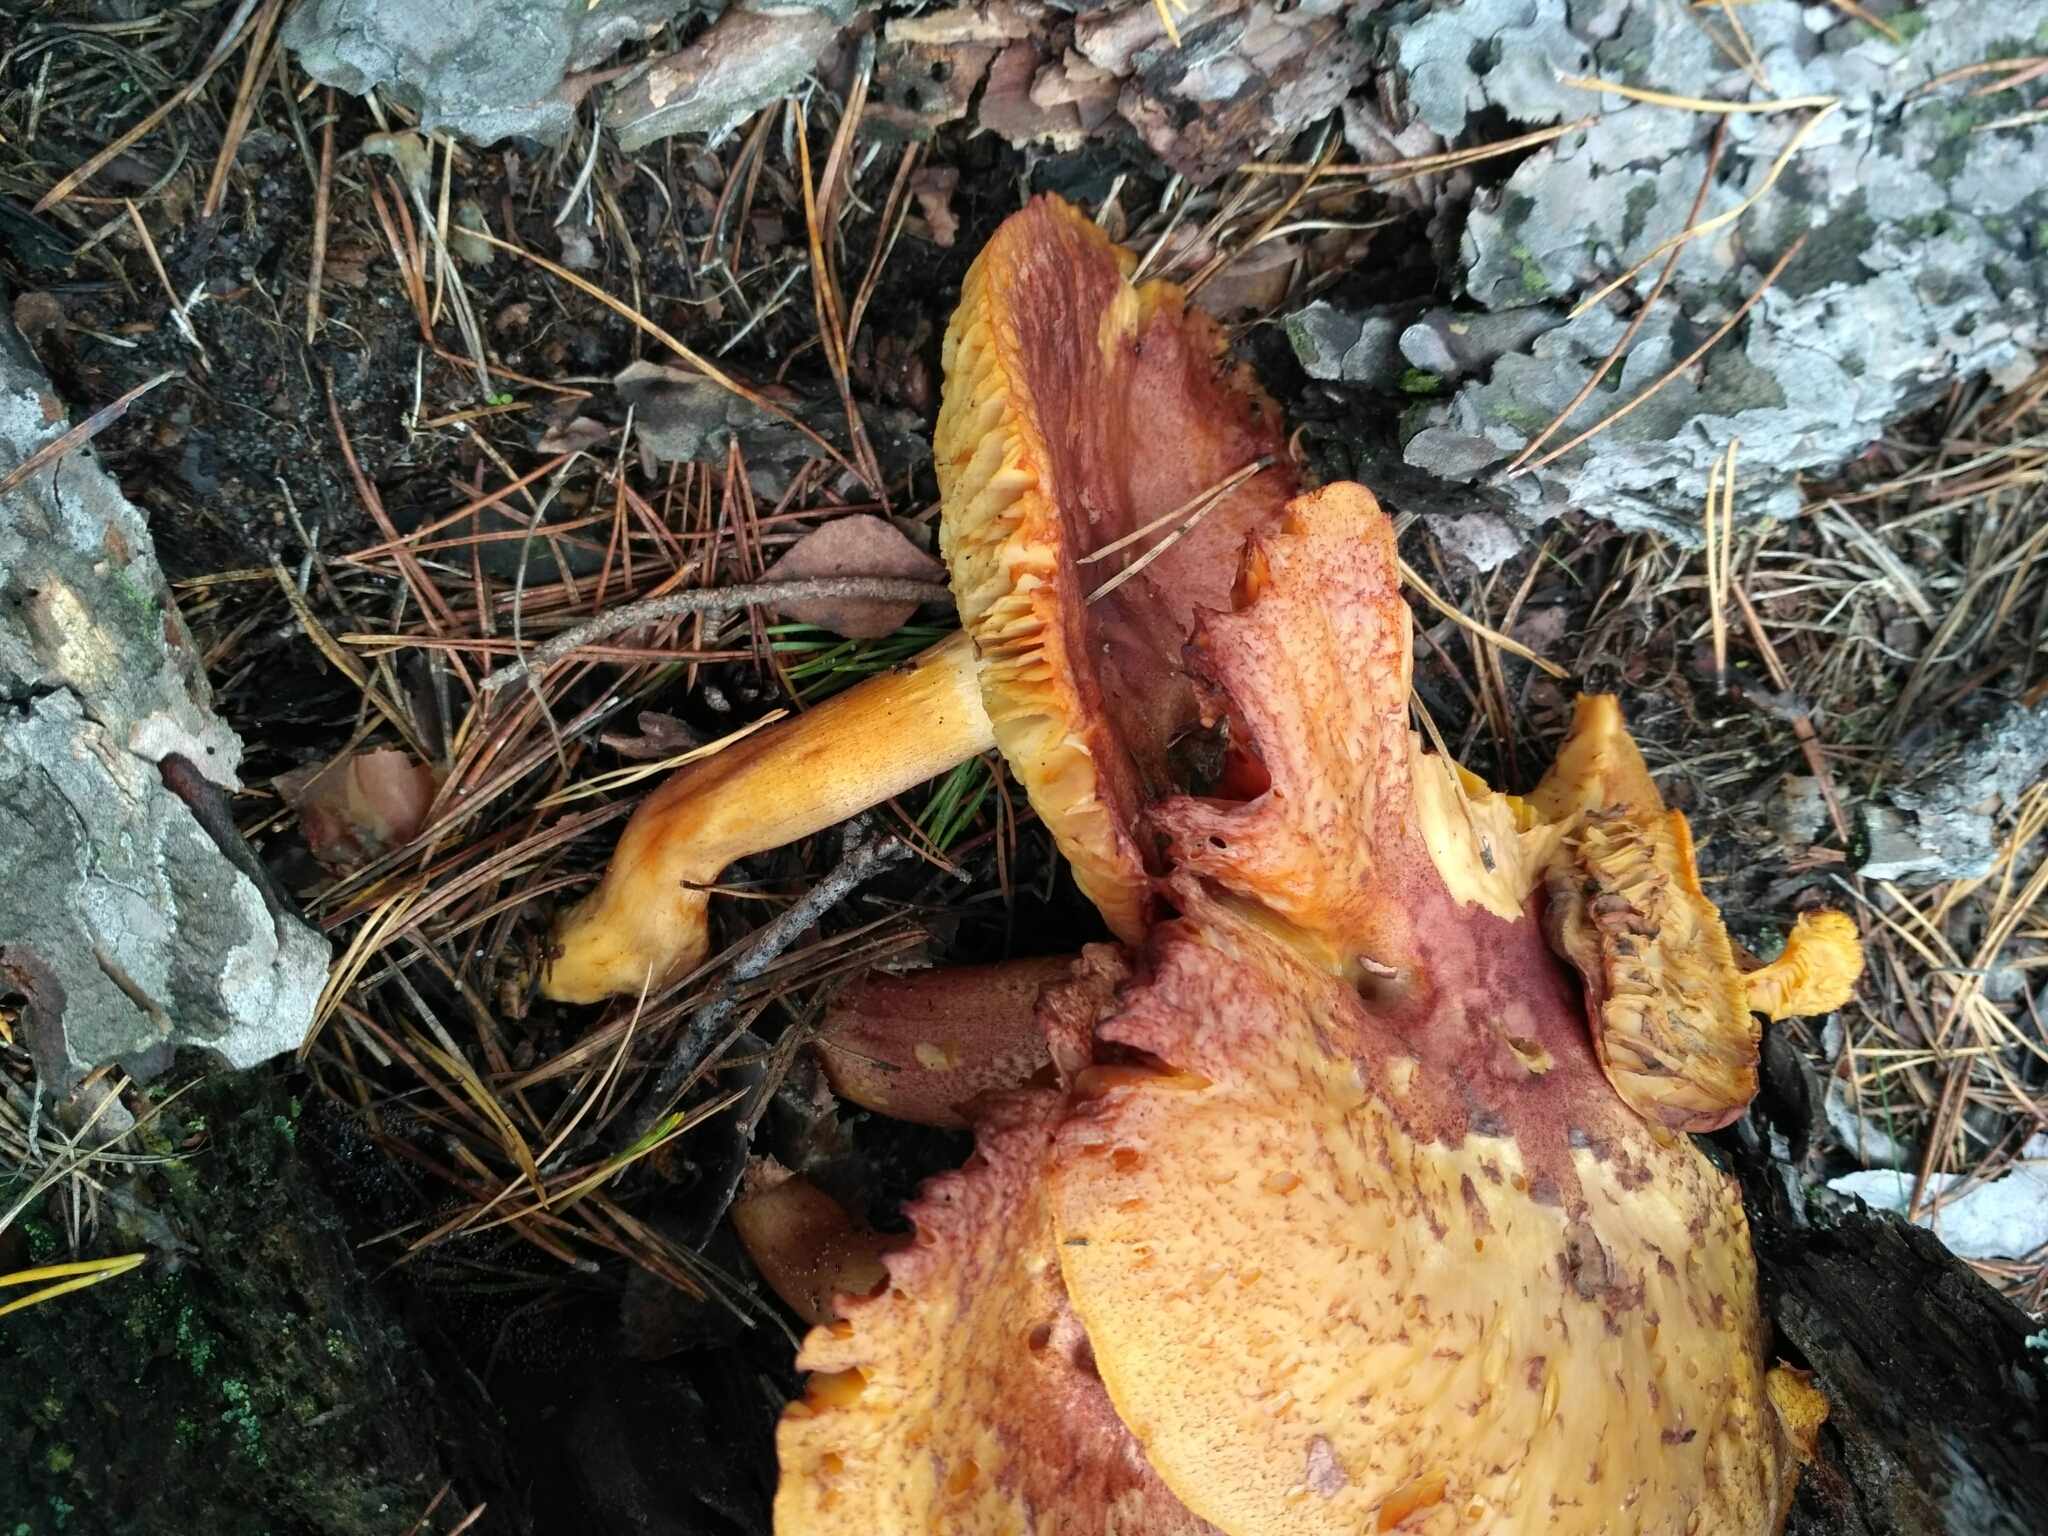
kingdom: Fungi
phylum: Basidiomycota
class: Agaricomycetes
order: Agaricales
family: Tricholomataceae
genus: Tricholomopsis
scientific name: Tricholomopsis rutilans
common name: Plums and custard
